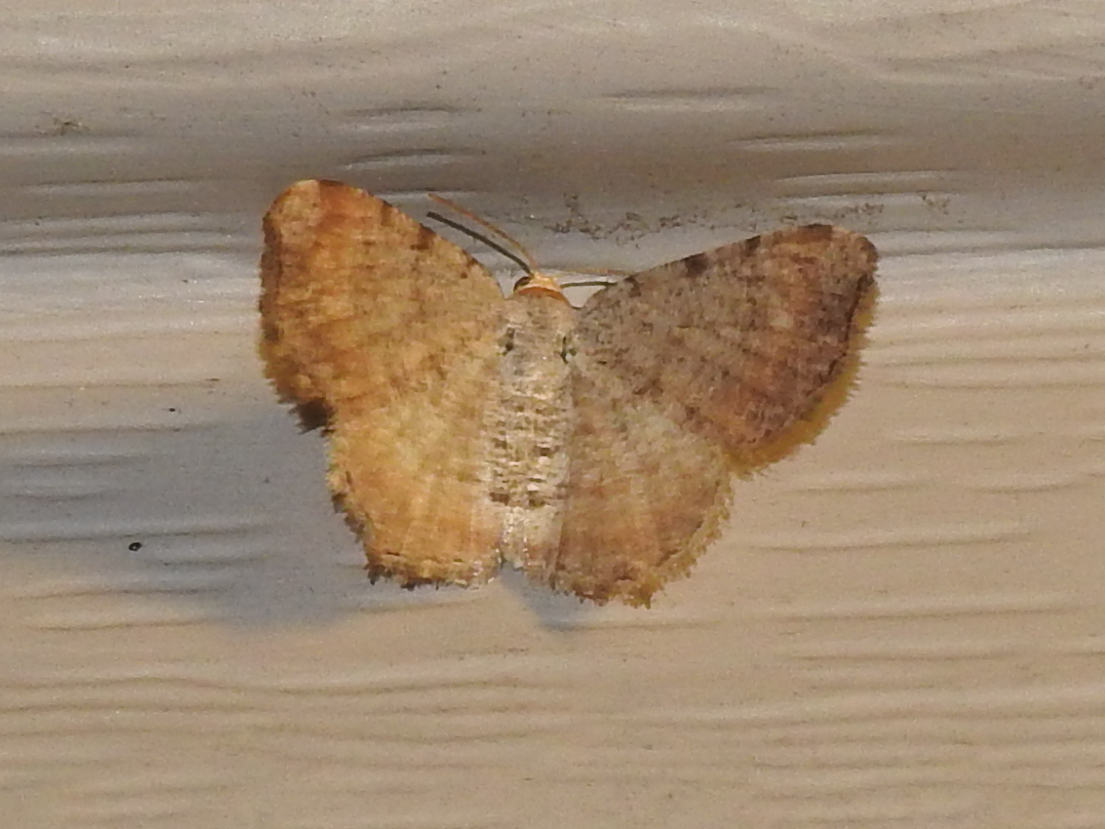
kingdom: Animalia
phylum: Arthropoda
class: Insecta
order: Lepidoptera
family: Geometridae
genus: Macaria
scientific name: Macaria minorata
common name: Minor angle moth
